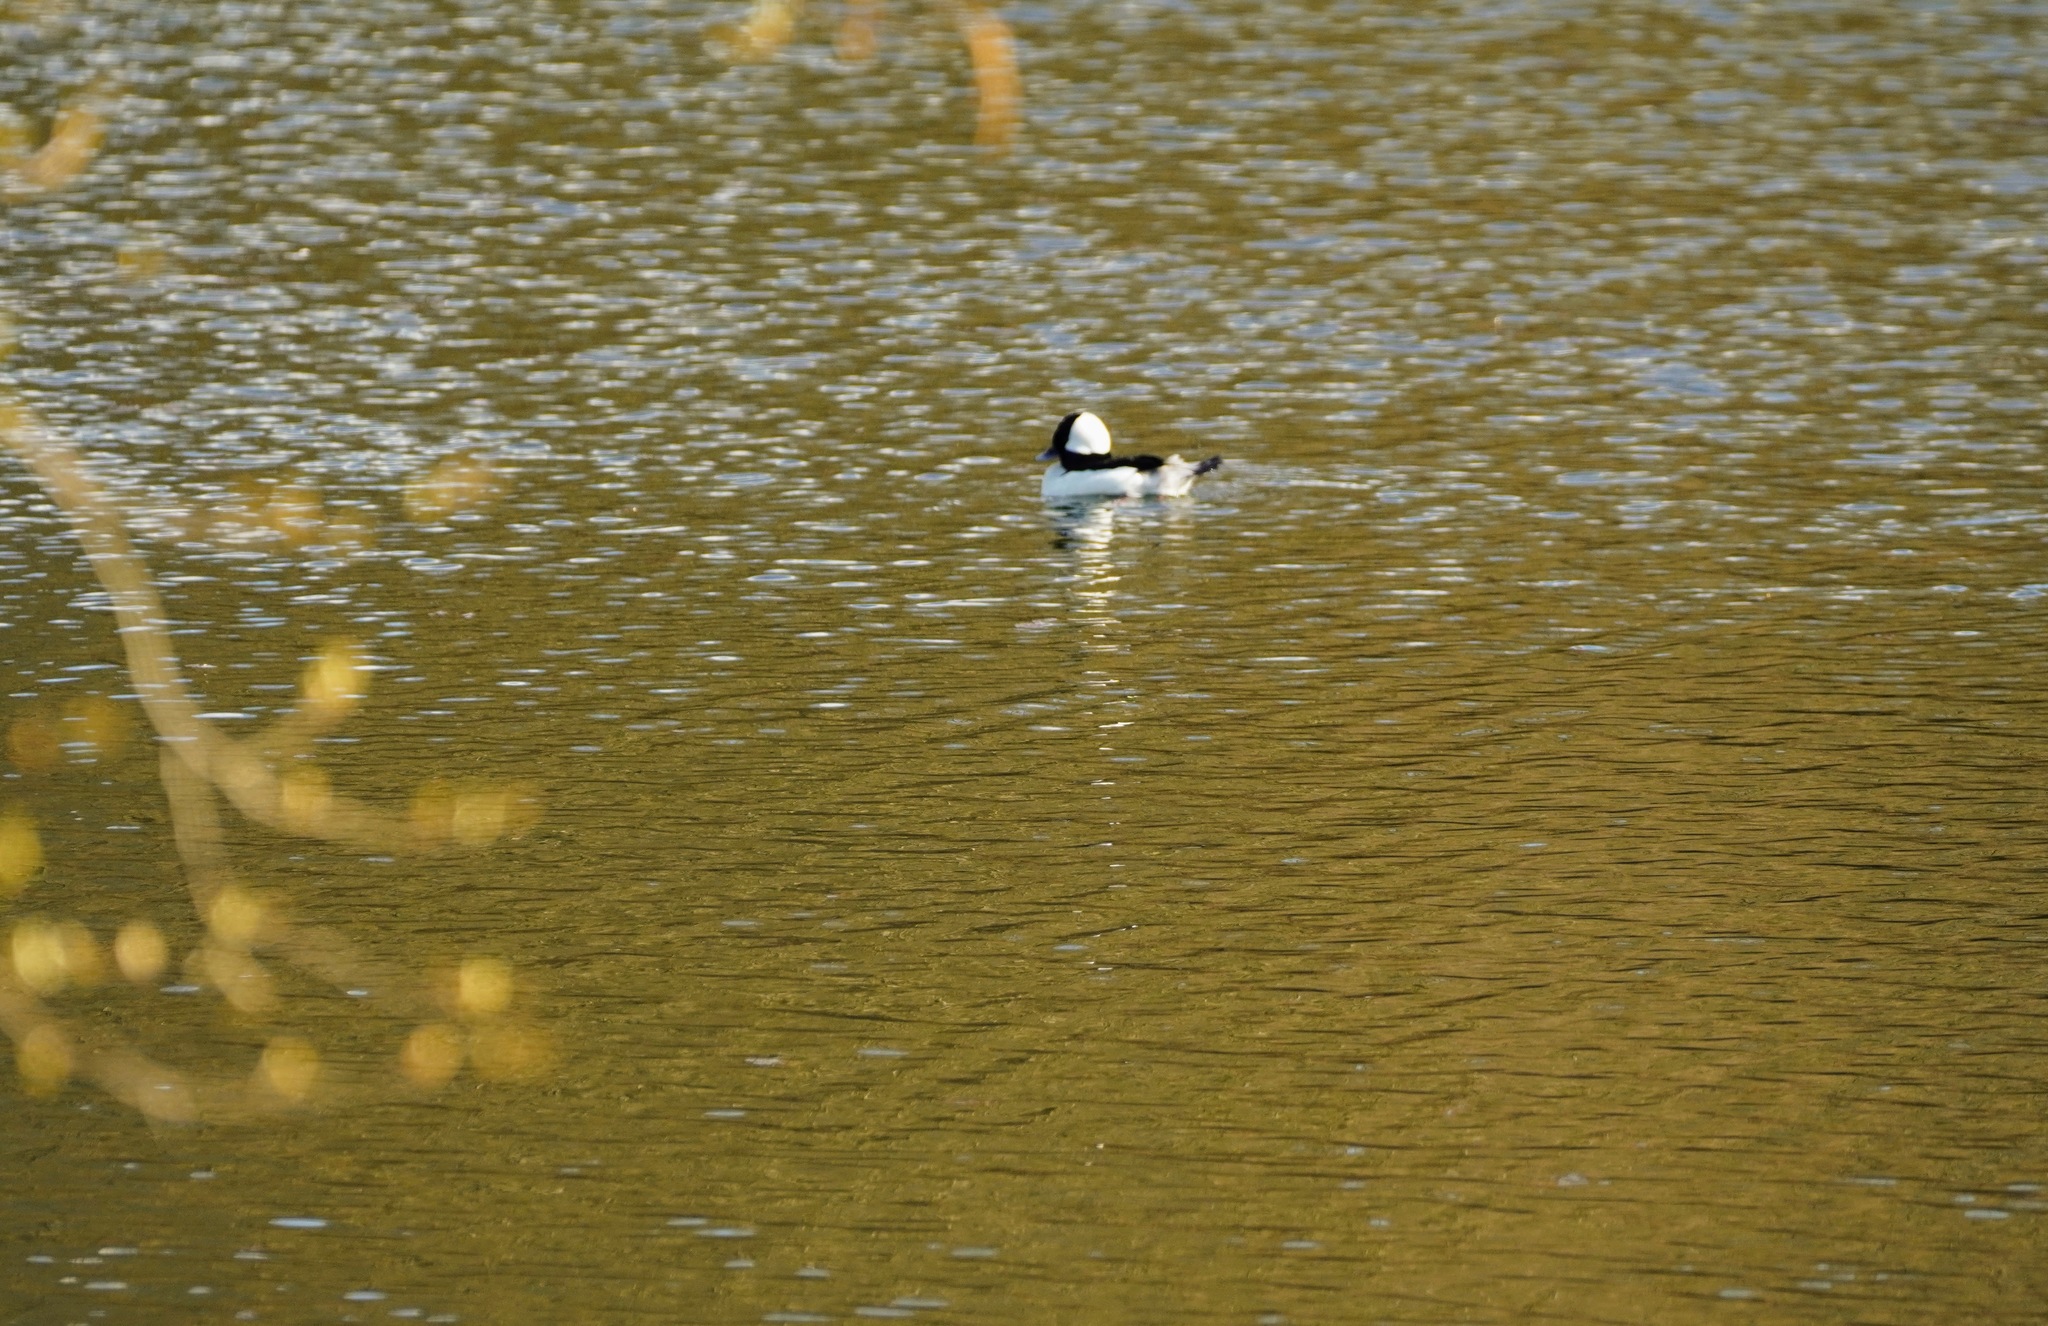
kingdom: Animalia
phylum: Chordata
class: Aves
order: Anseriformes
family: Anatidae
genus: Bucephala
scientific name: Bucephala albeola
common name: Bufflehead
